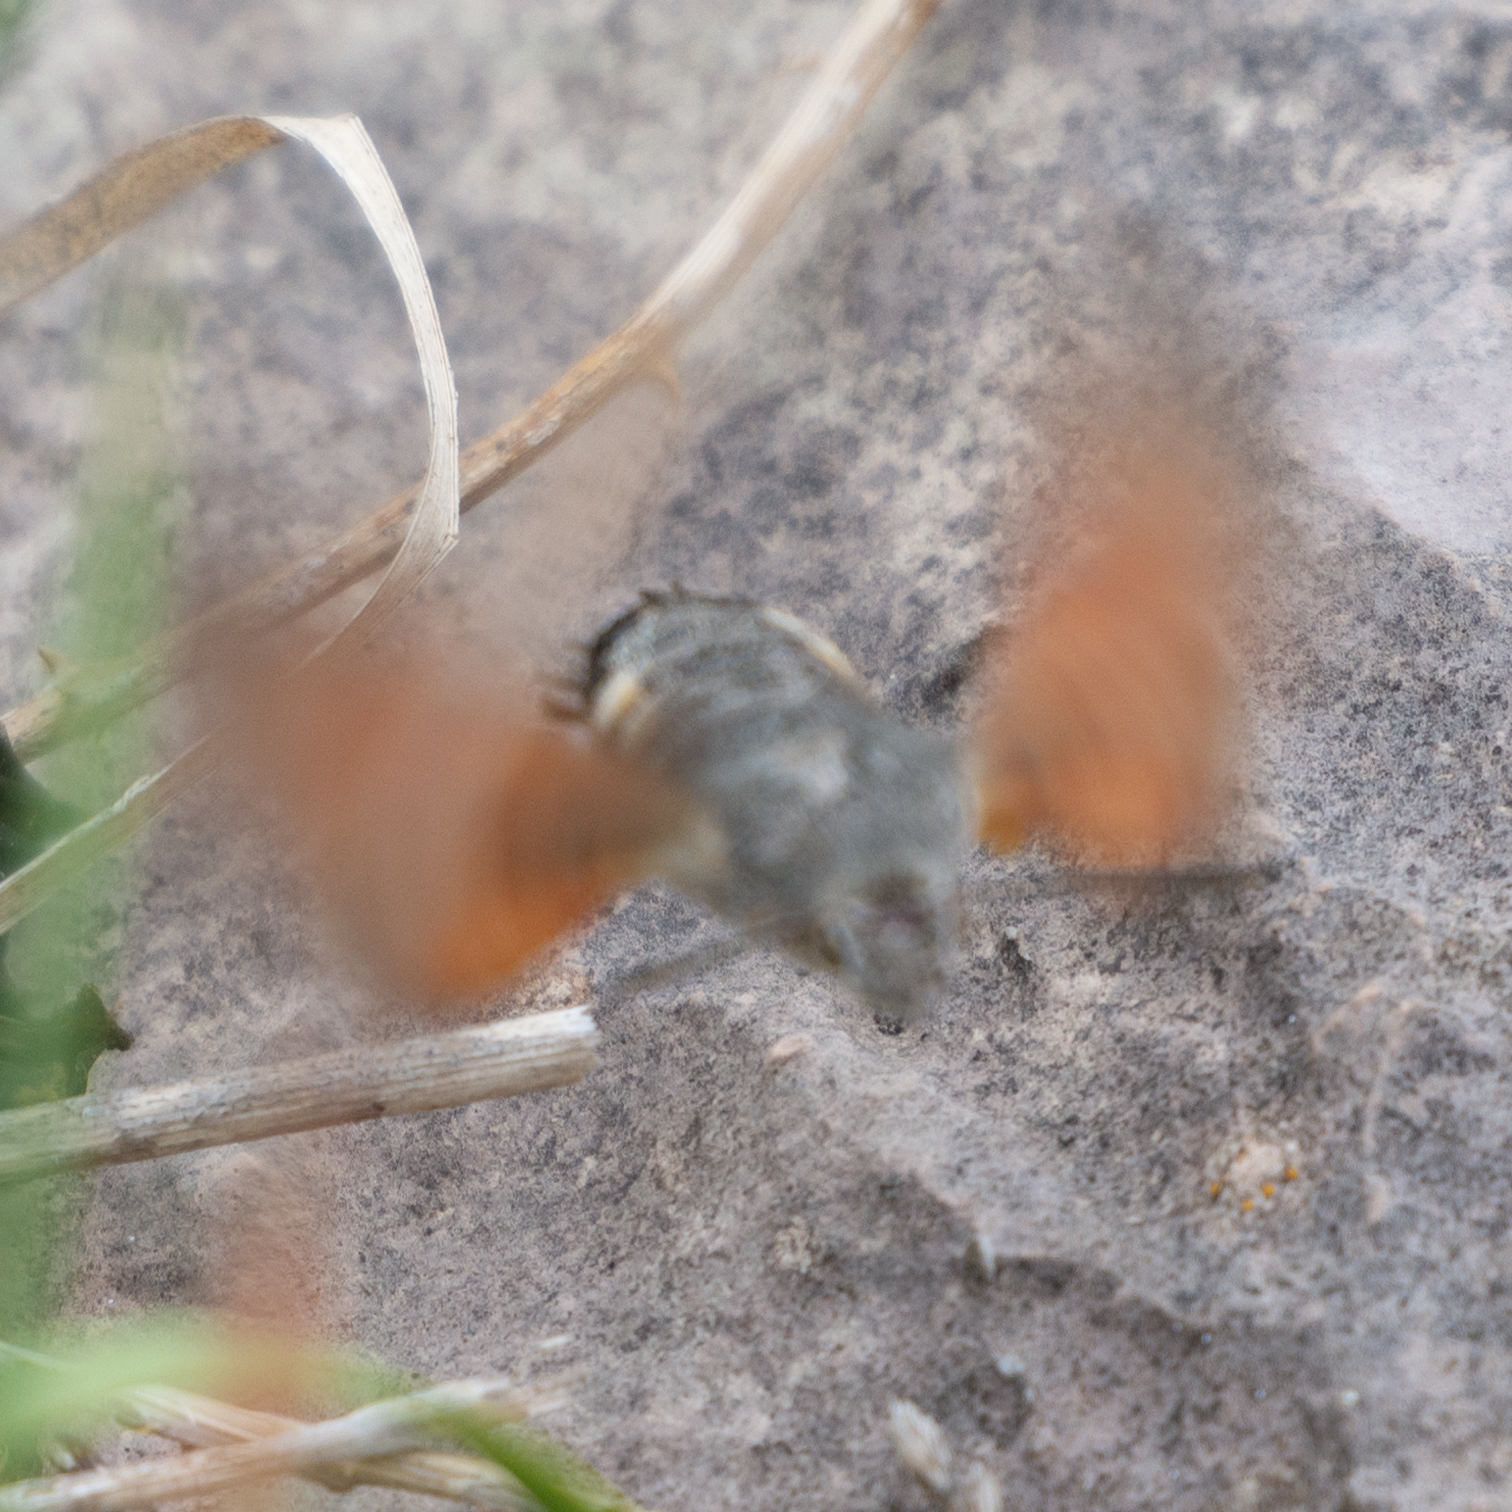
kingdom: Animalia
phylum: Arthropoda
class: Insecta
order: Lepidoptera
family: Sphingidae
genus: Macroglossum
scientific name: Macroglossum stellatarum
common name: Humming-bird hawk-moth
